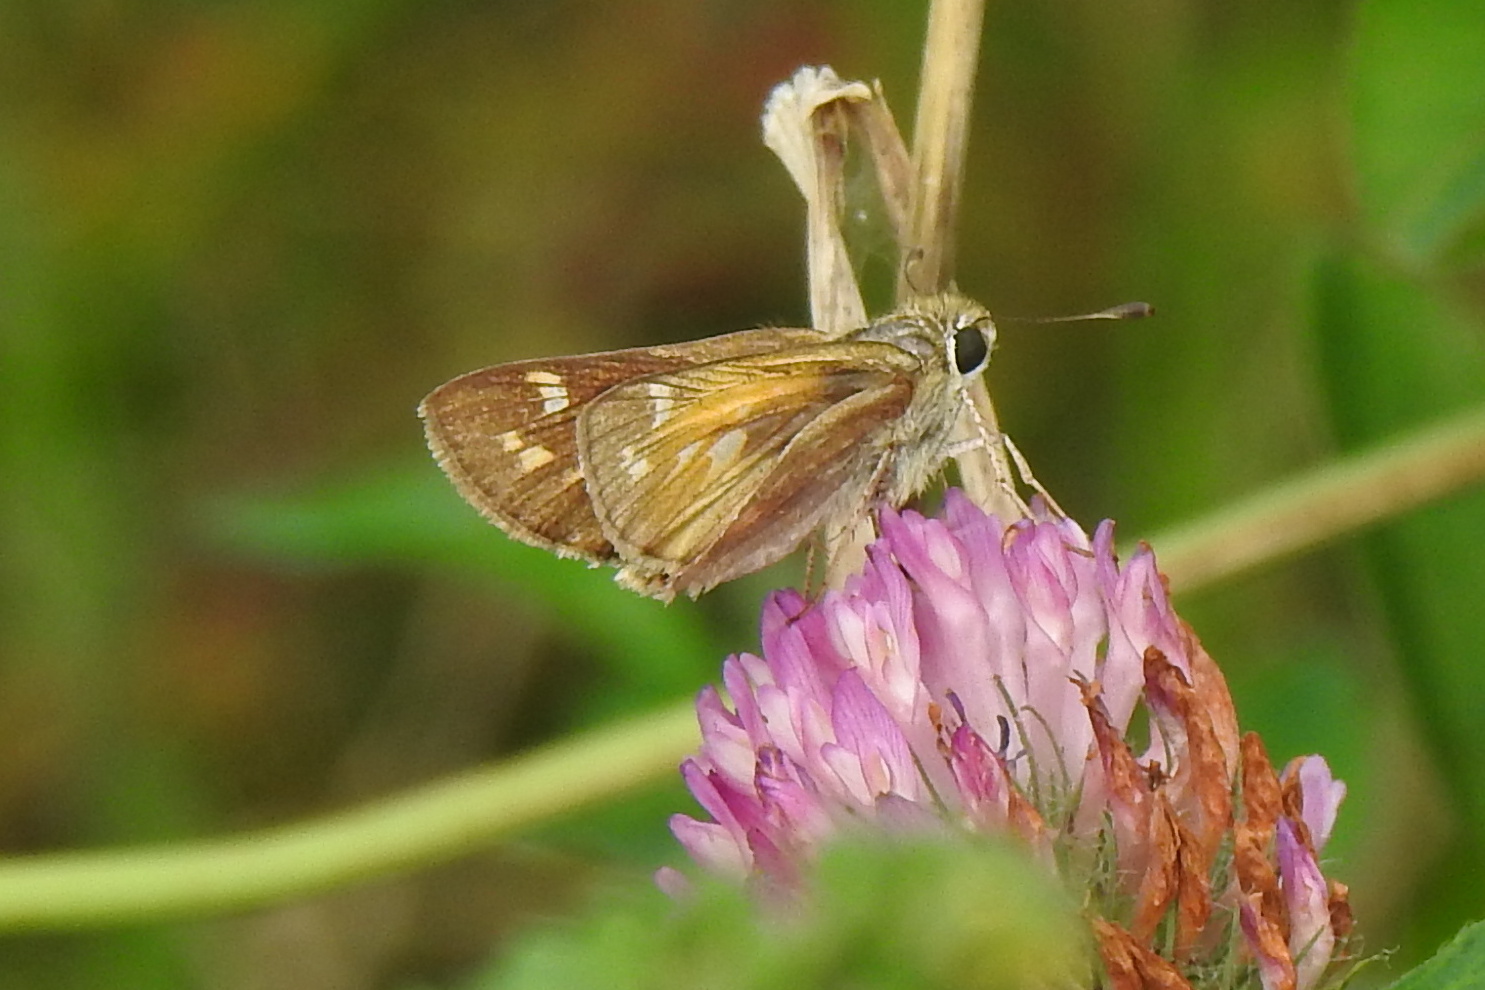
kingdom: Animalia
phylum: Arthropoda
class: Insecta
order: Lepidoptera
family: Hesperiidae
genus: Atalopedes
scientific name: Atalopedes
